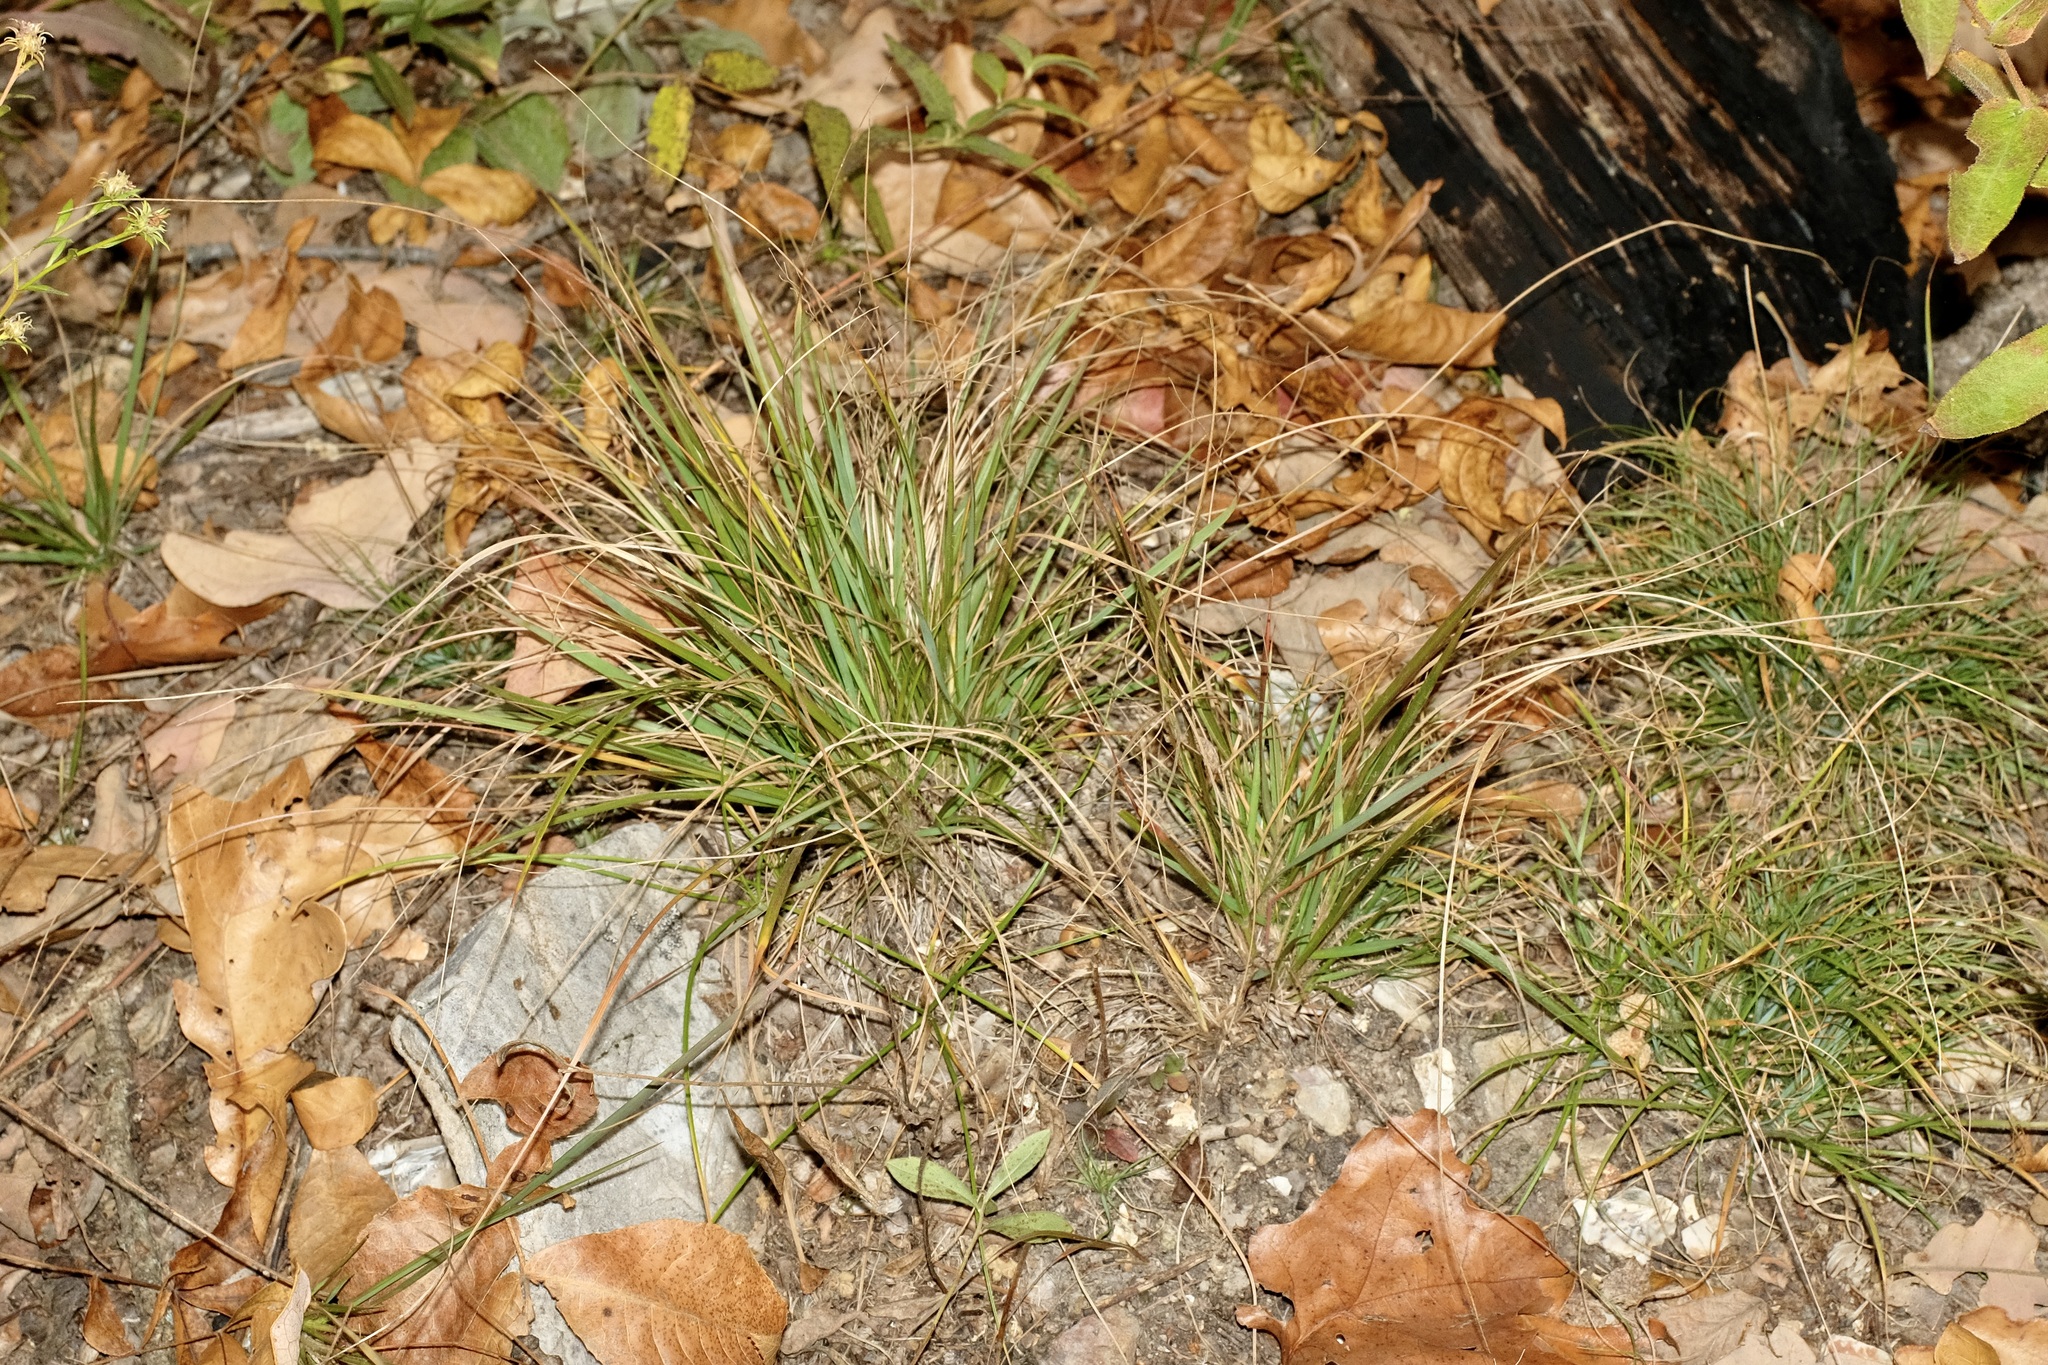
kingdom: Plantae
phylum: Tracheophyta
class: Liliopsida
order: Poales
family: Poaceae
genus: Dichanthelium
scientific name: Dichanthelium linearifolium
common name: Linear-leaved panicgrass
